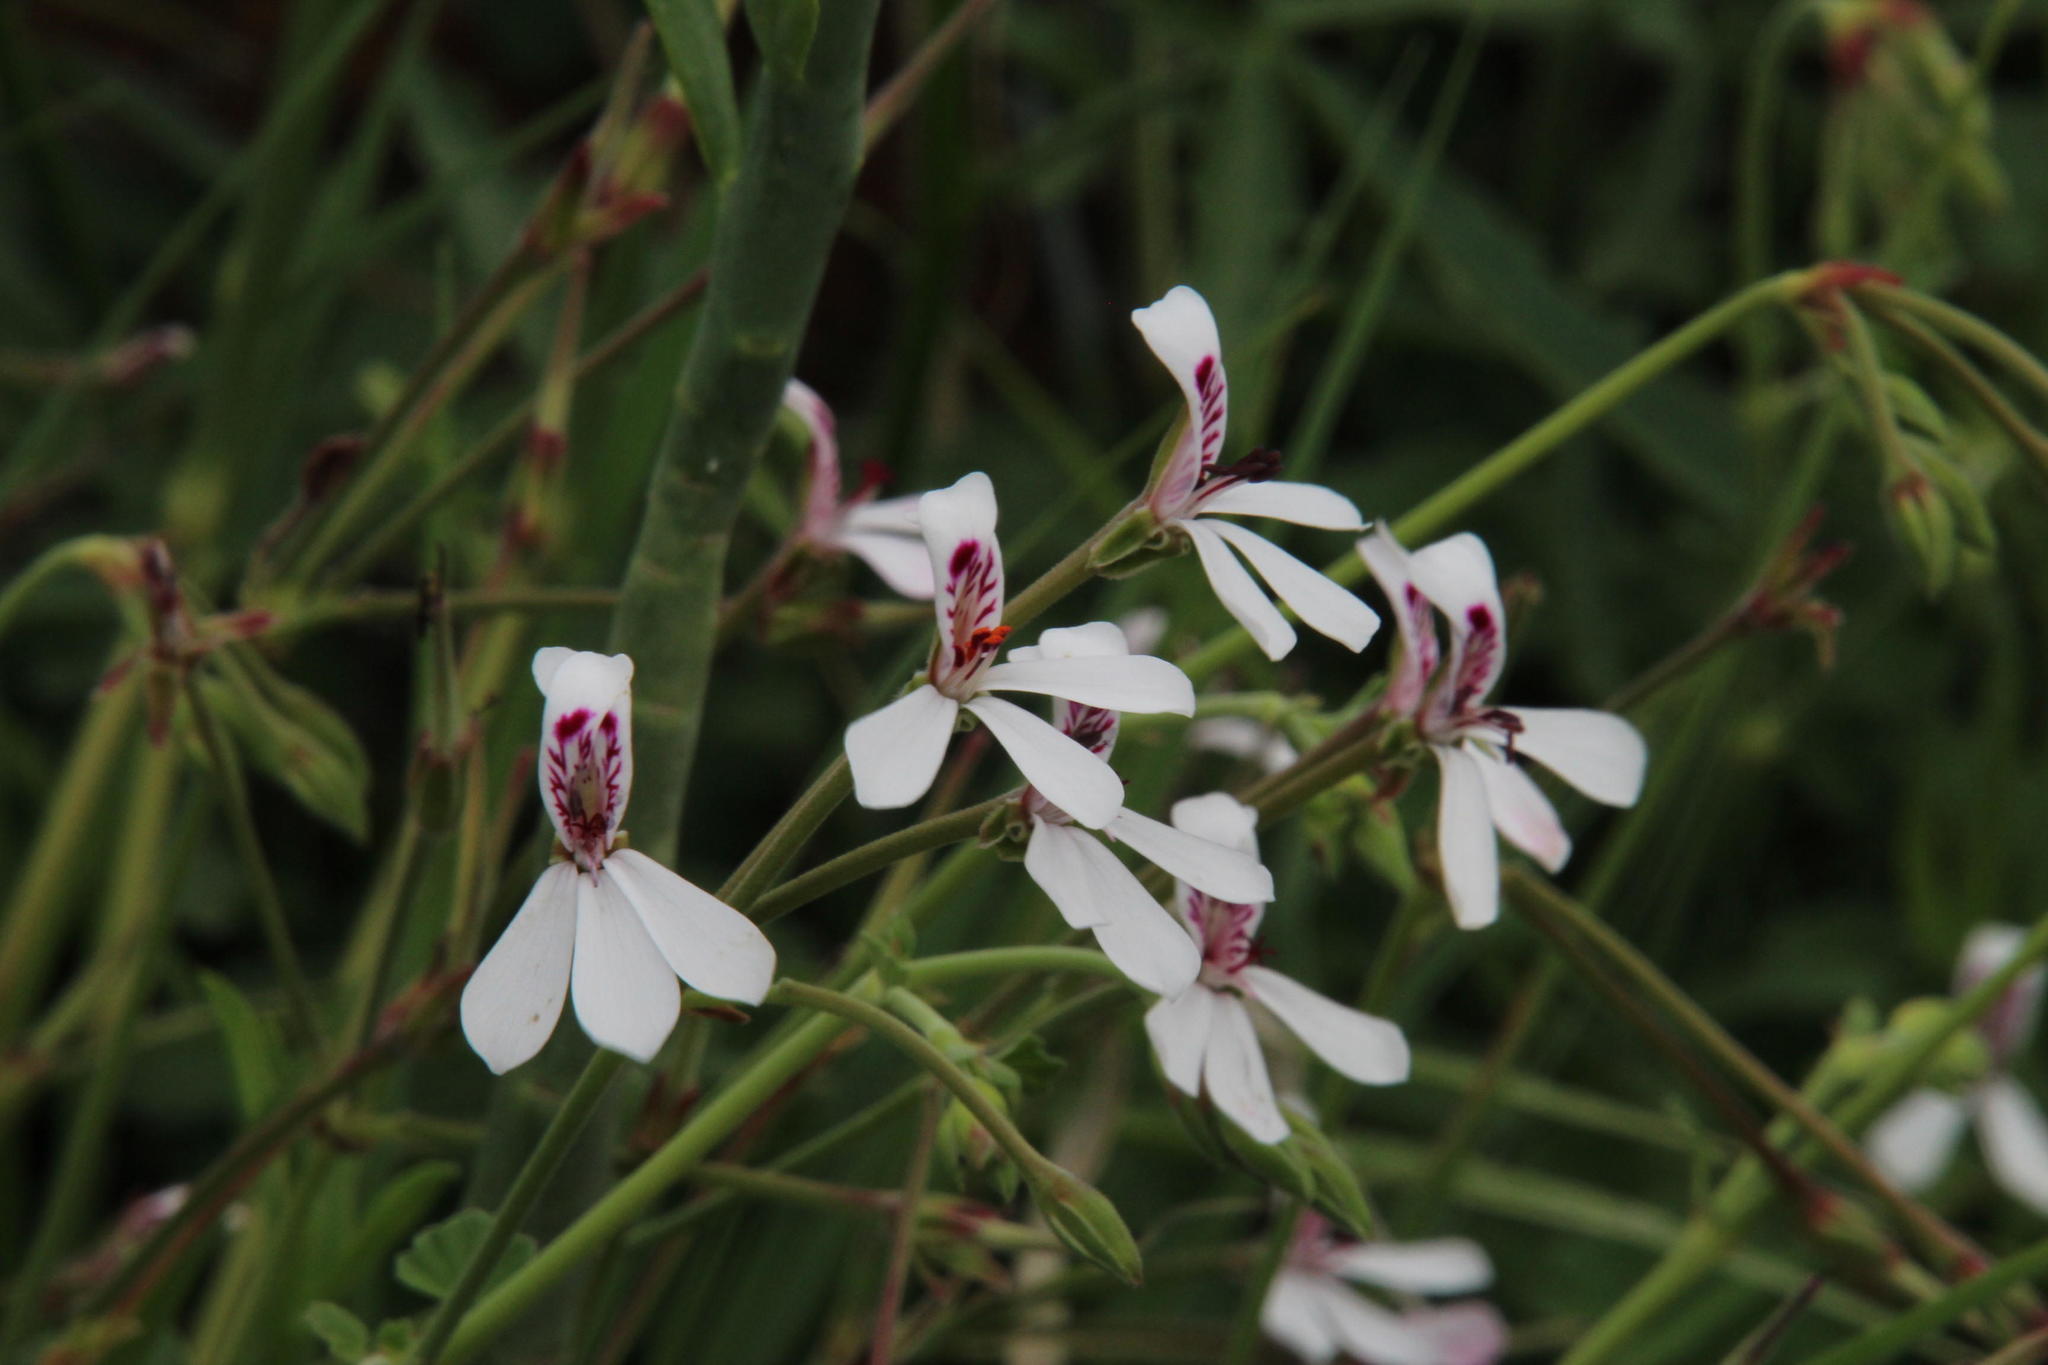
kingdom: Plantae
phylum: Tracheophyta
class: Magnoliopsida
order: Geraniales
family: Geraniaceae
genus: Pelargonium
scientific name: Pelargonium dichondrifolium
